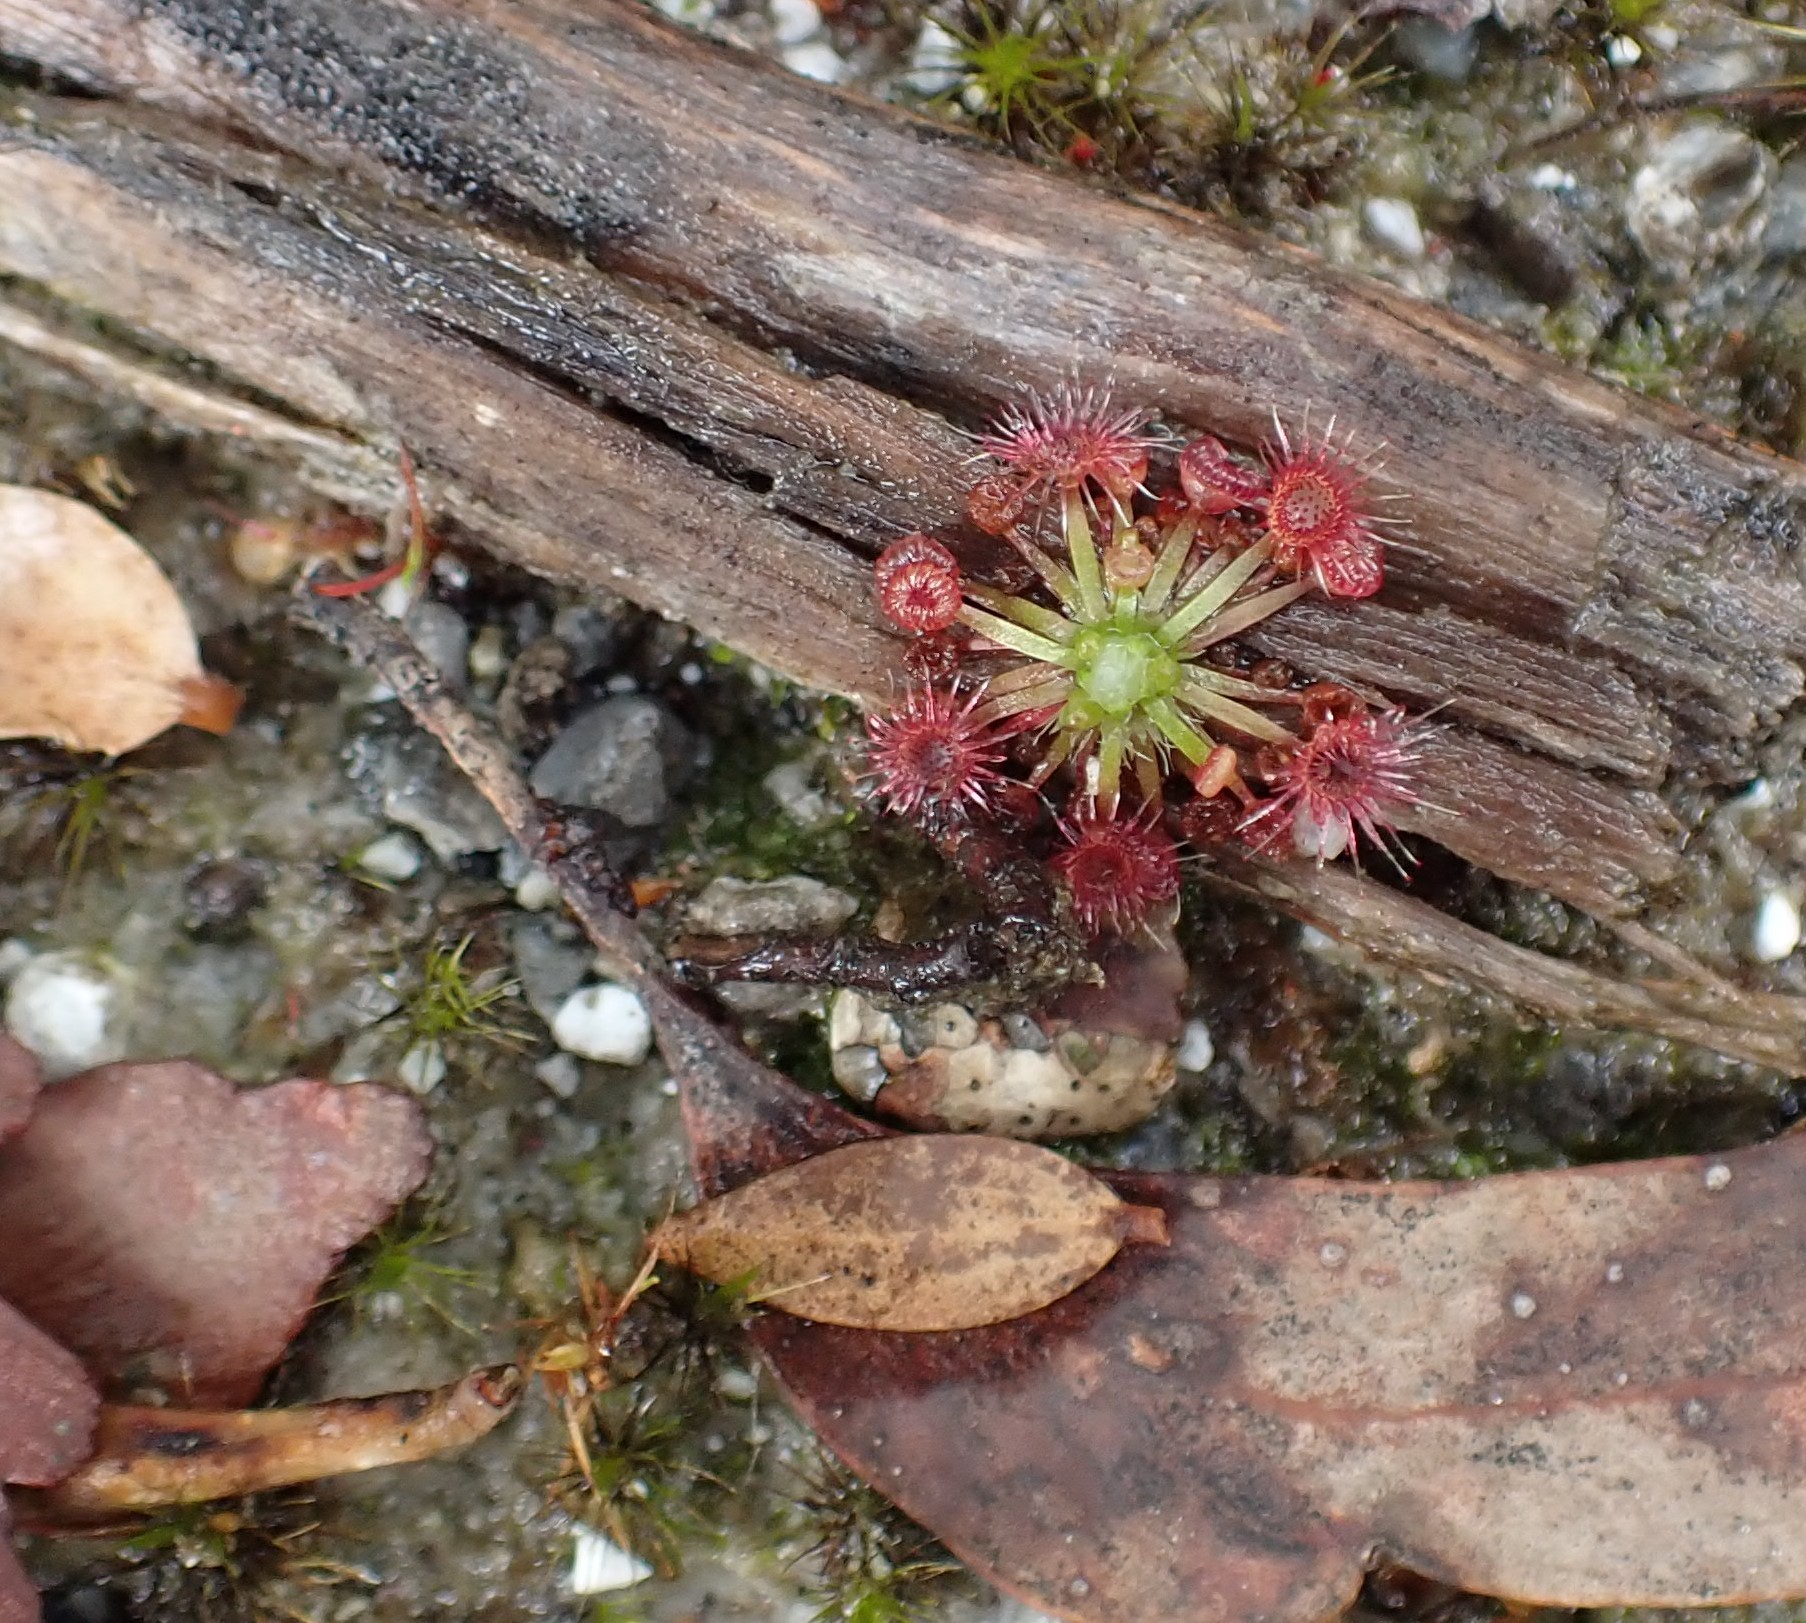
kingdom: Plantae
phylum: Tracheophyta
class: Magnoliopsida
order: Caryophyllales
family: Droseraceae
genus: Drosera
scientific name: Drosera pygmaea
